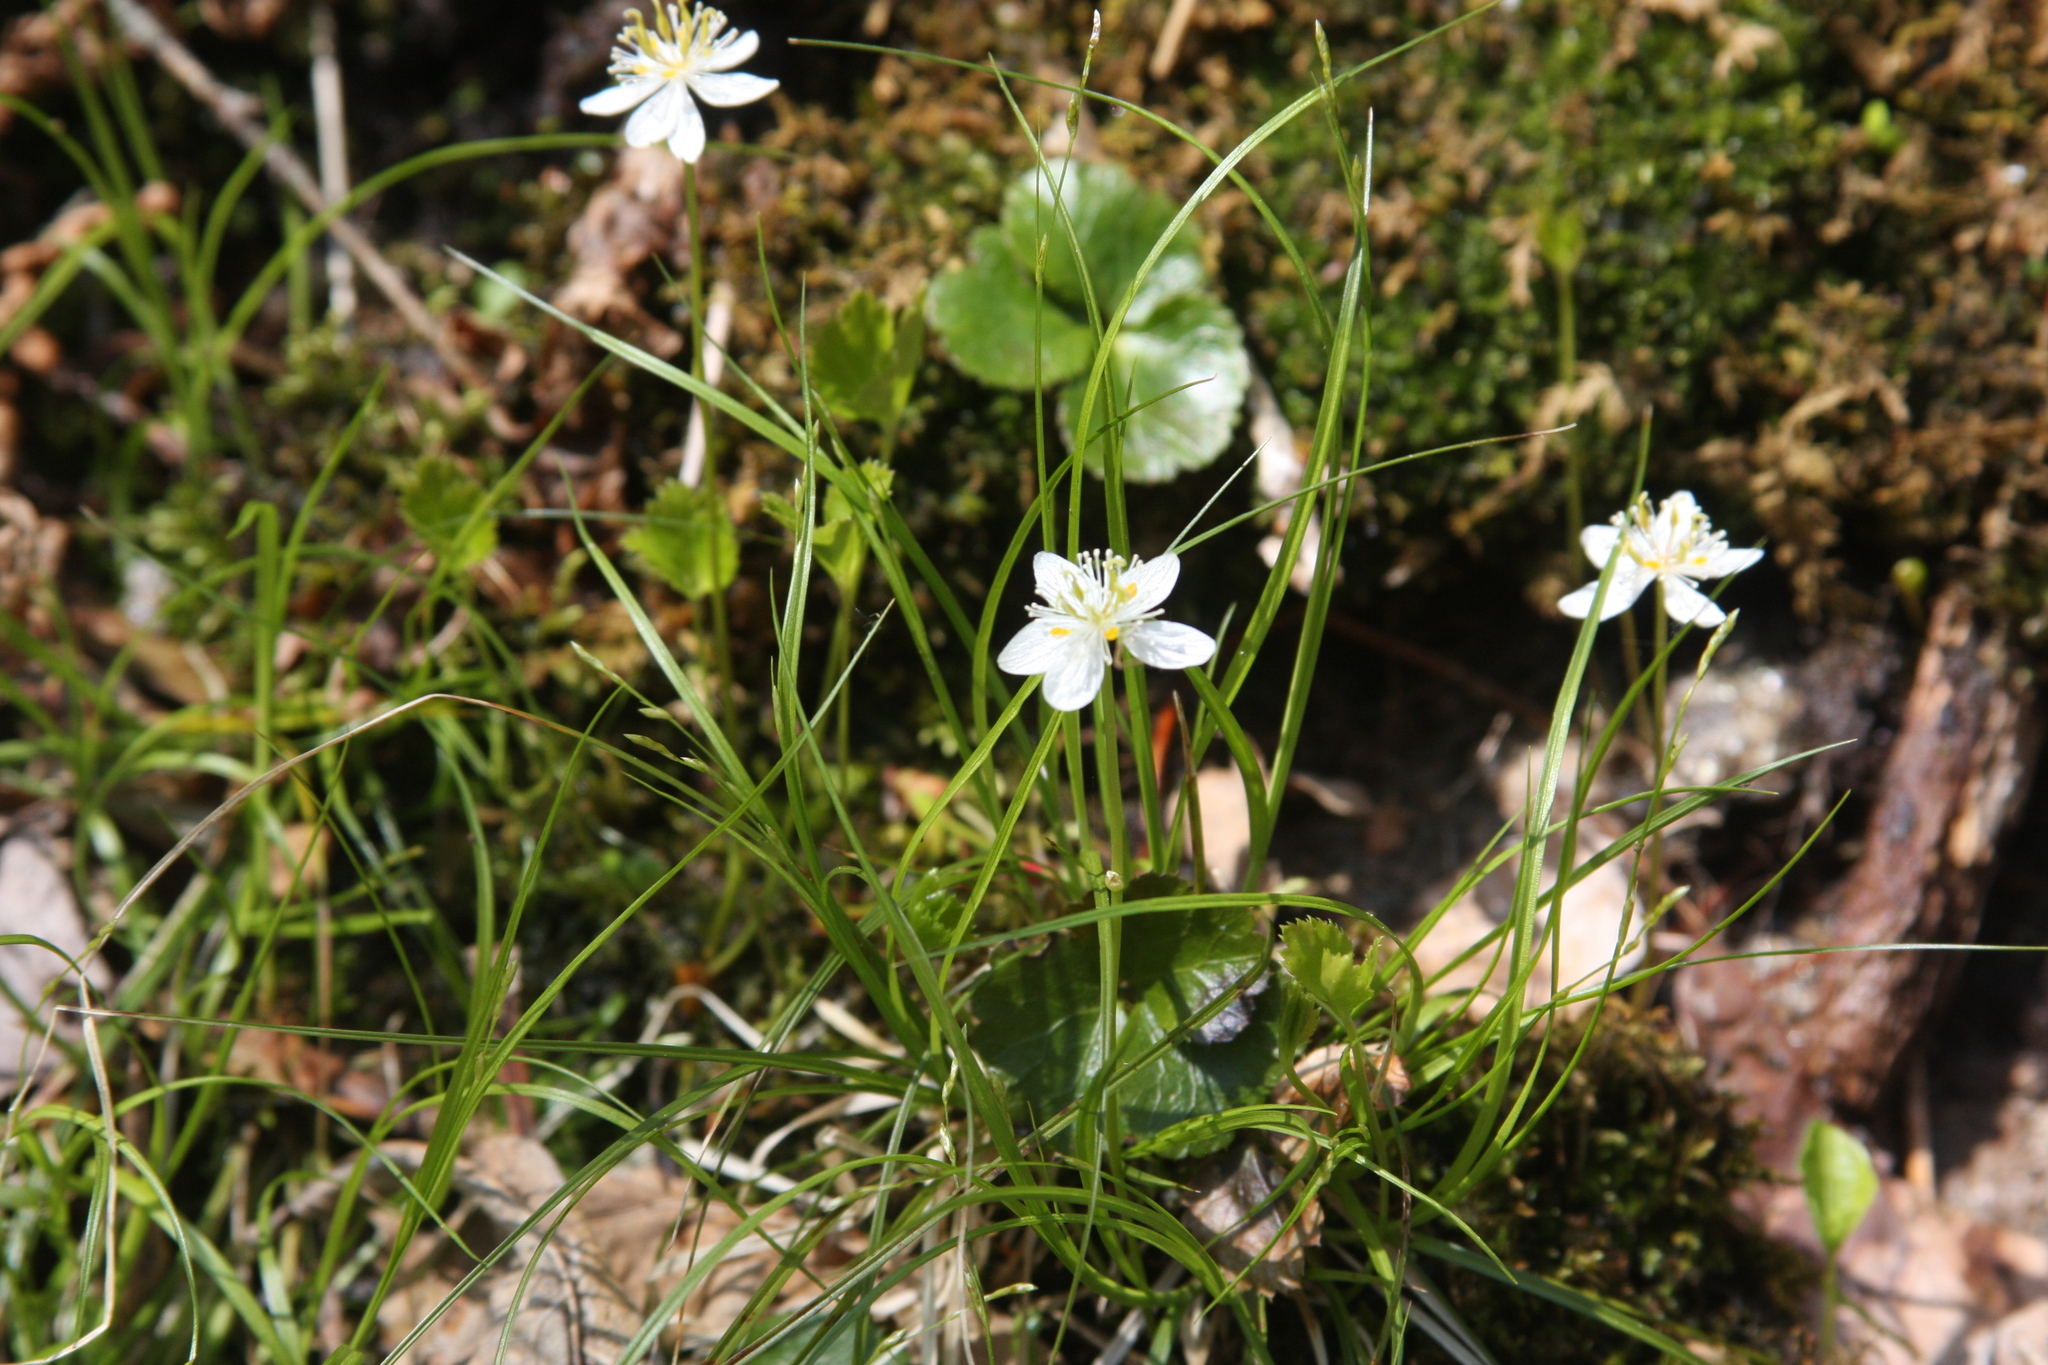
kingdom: Plantae
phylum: Tracheophyta
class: Magnoliopsida
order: Ranunculales
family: Ranunculaceae
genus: Coptis
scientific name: Coptis trifolia
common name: Canker-root
